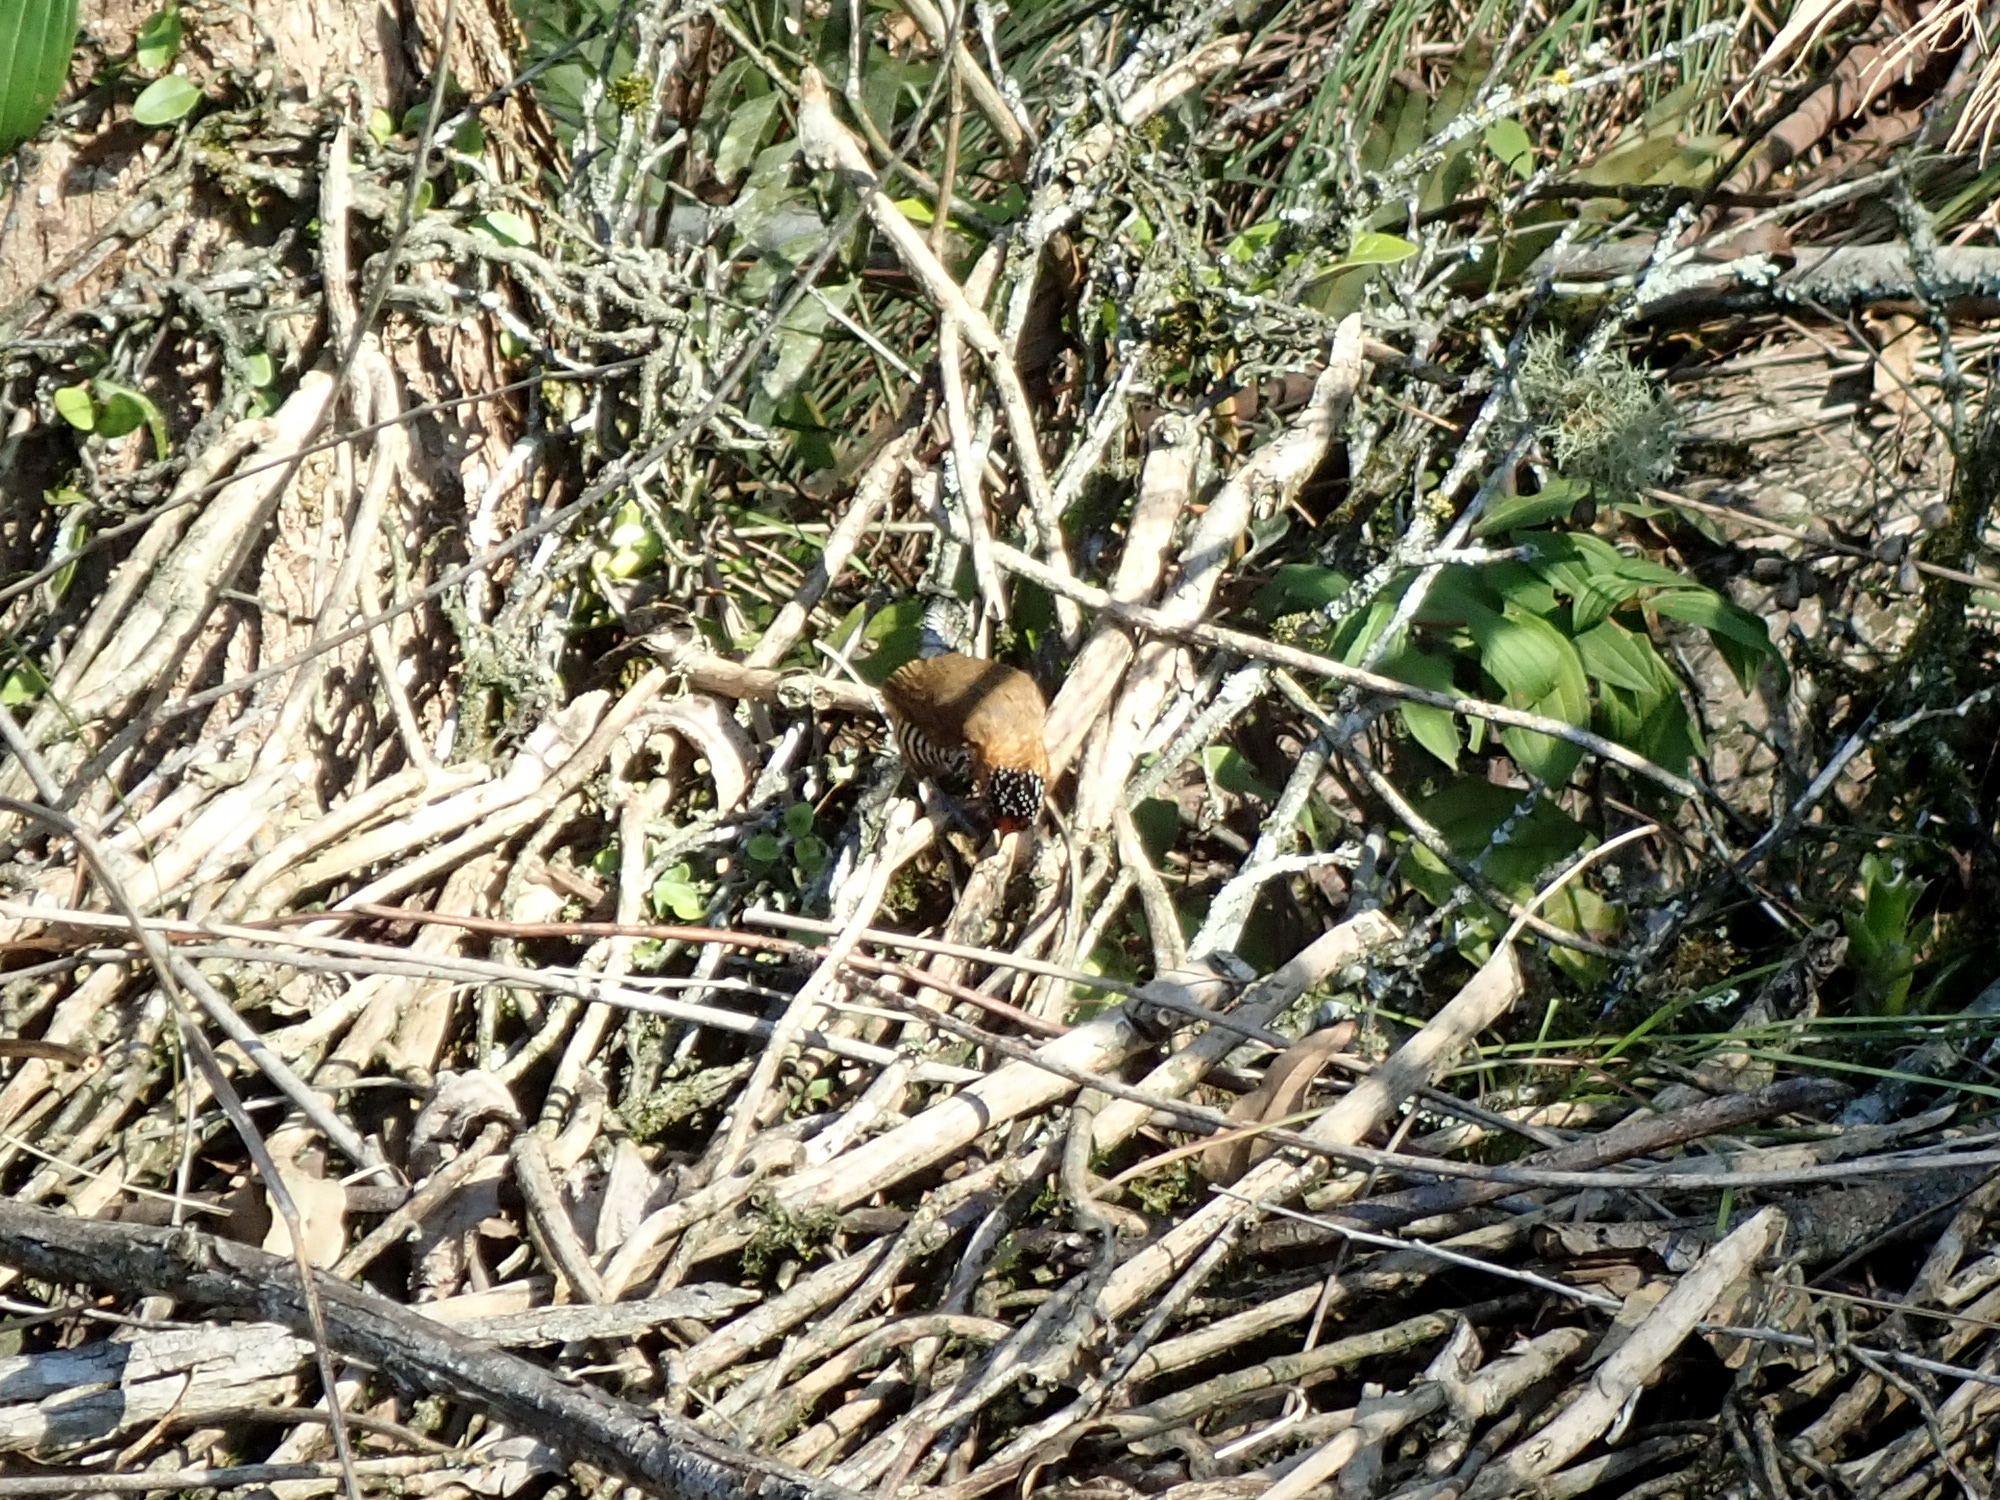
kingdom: Animalia
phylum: Chordata
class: Aves
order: Piciformes
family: Picidae
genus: Picumnus
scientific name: Picumnus temminckii
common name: Ochre-collared piculet
